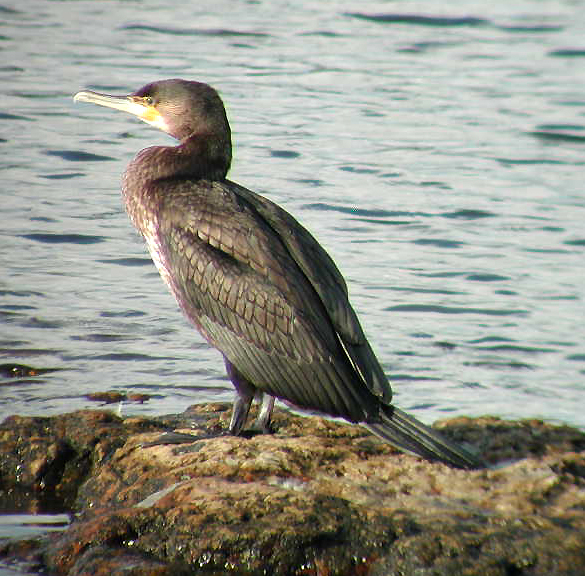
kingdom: Animalia
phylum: Chordata
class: Aves
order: Suliformes
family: Phalacrocoracidae
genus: Phalacrocorax
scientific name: Phalacrocorax carbo
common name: Great cormorant
